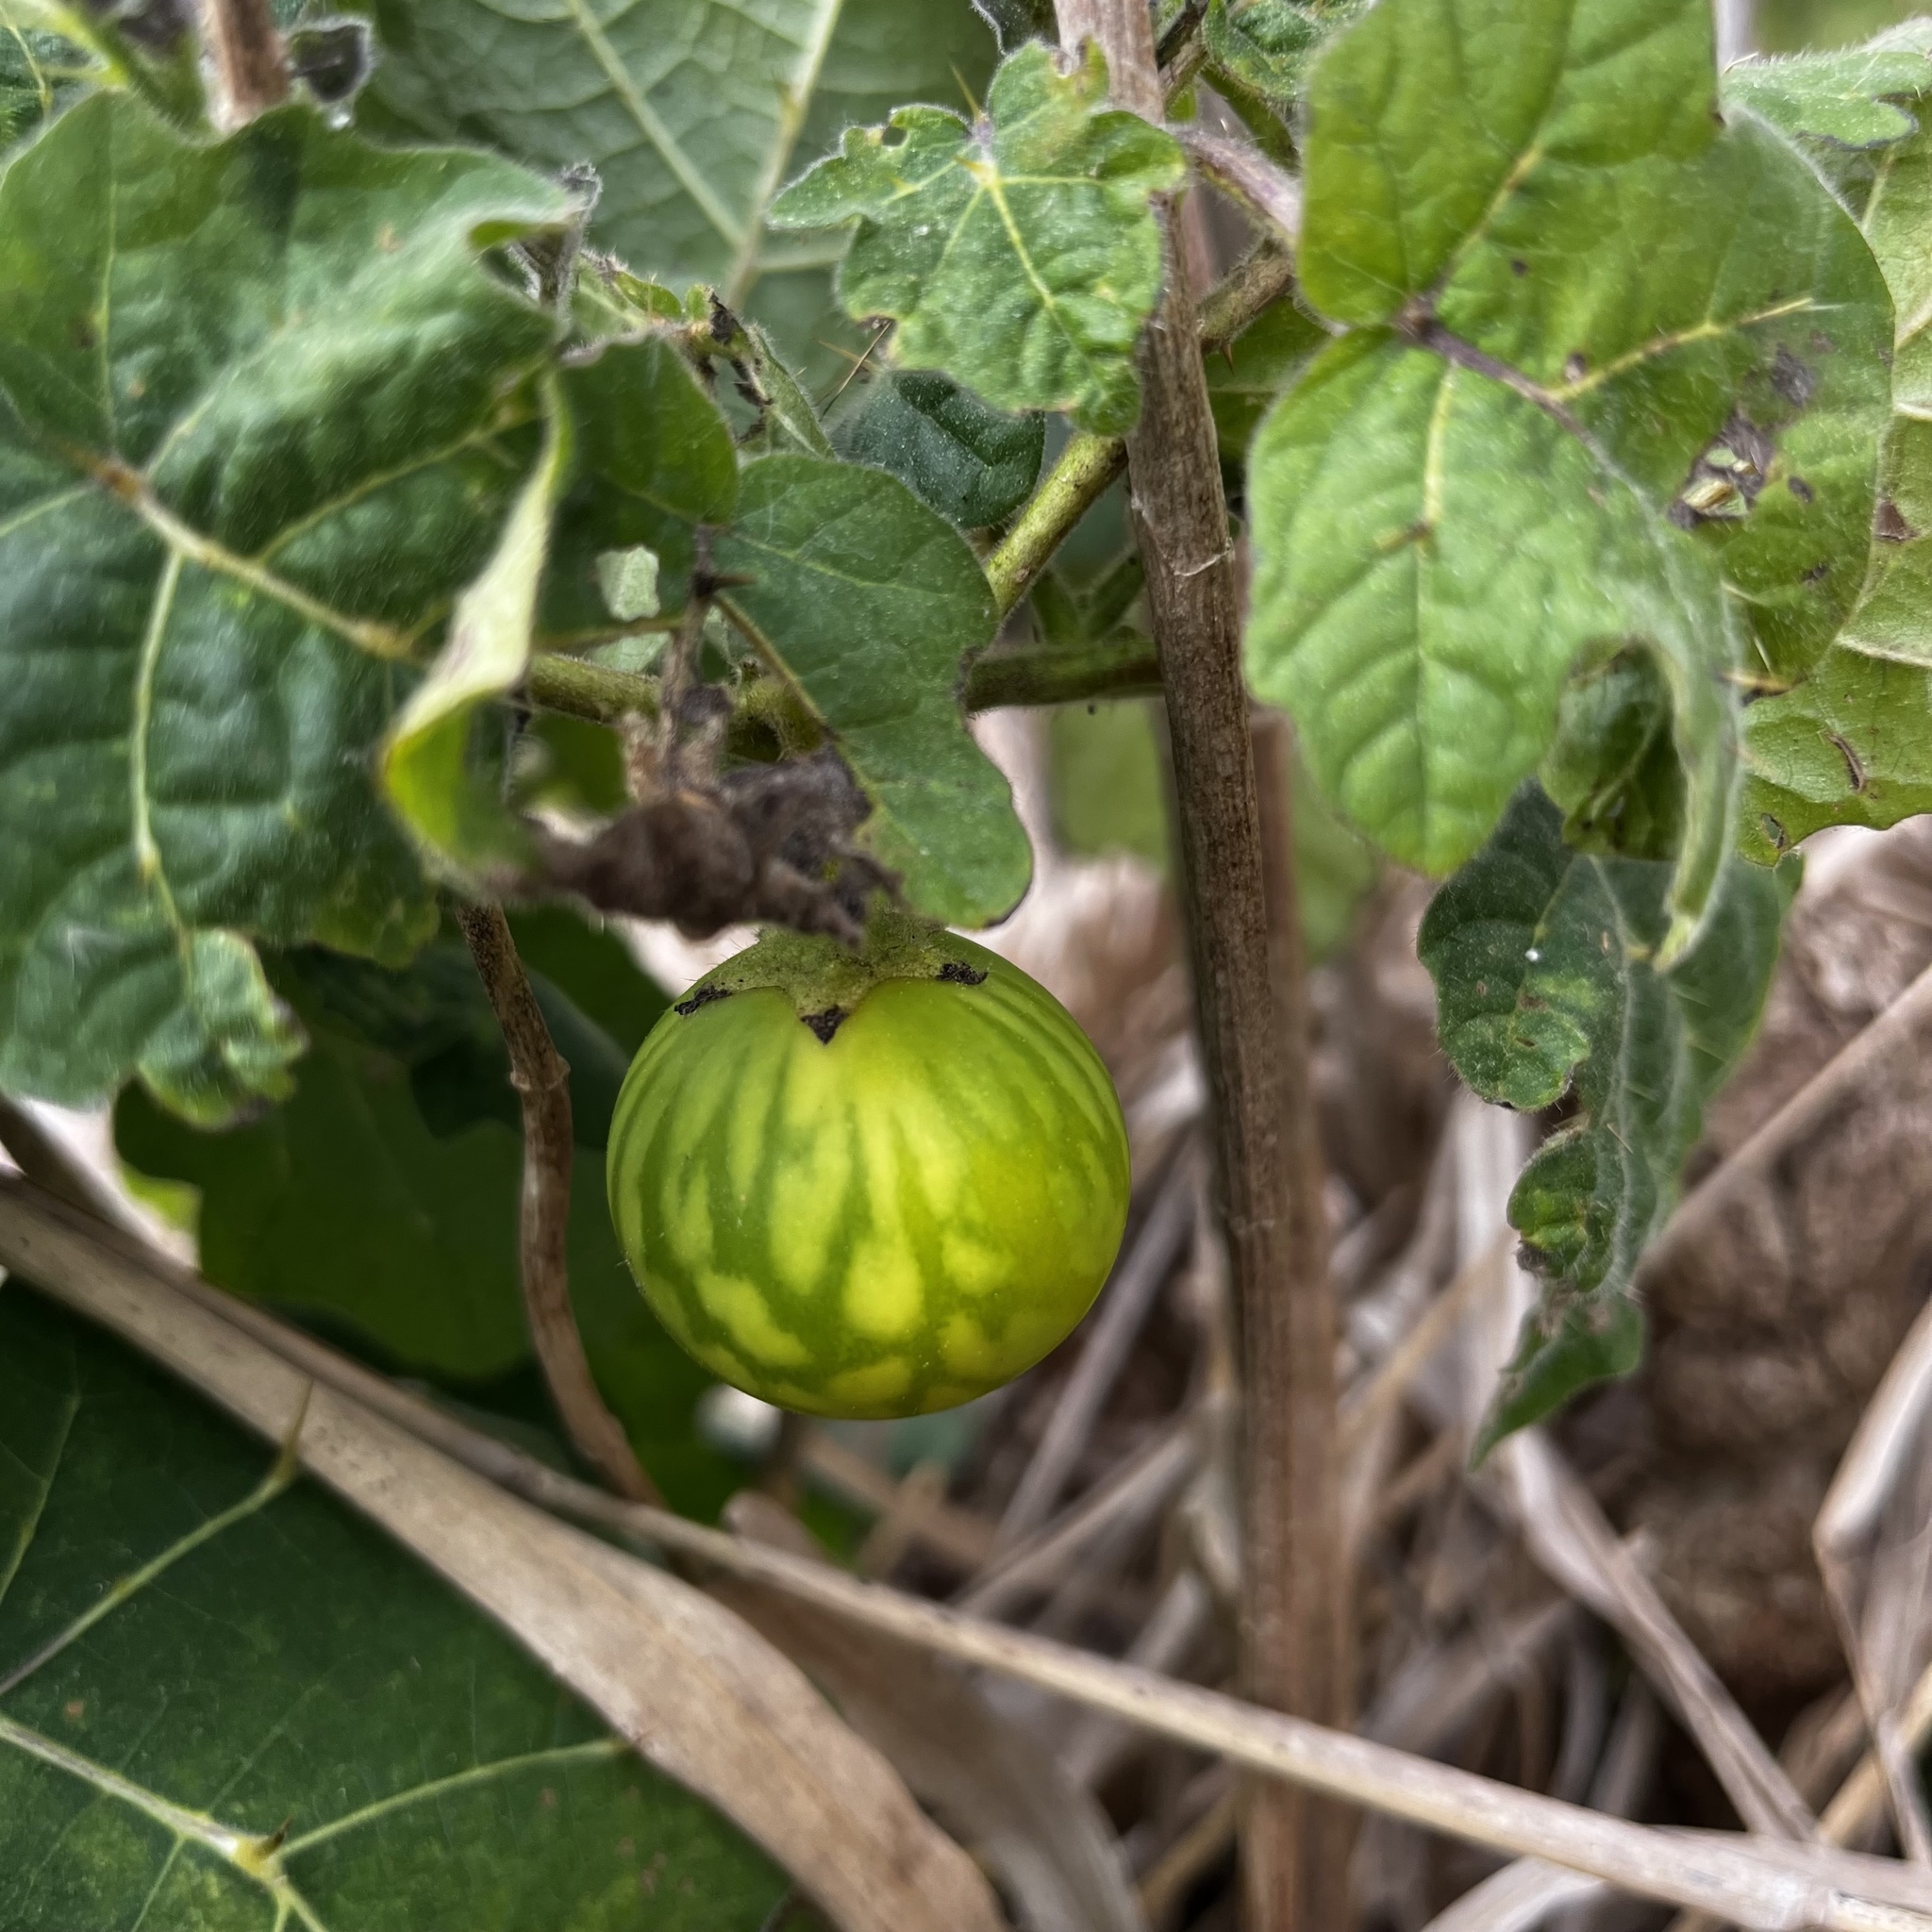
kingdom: Plantae
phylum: Tracheophyta
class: Magnoliopsida
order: Solanales
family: Solanaceae
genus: Solanum
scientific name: Solanum viarum
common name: Tropical soda apple
